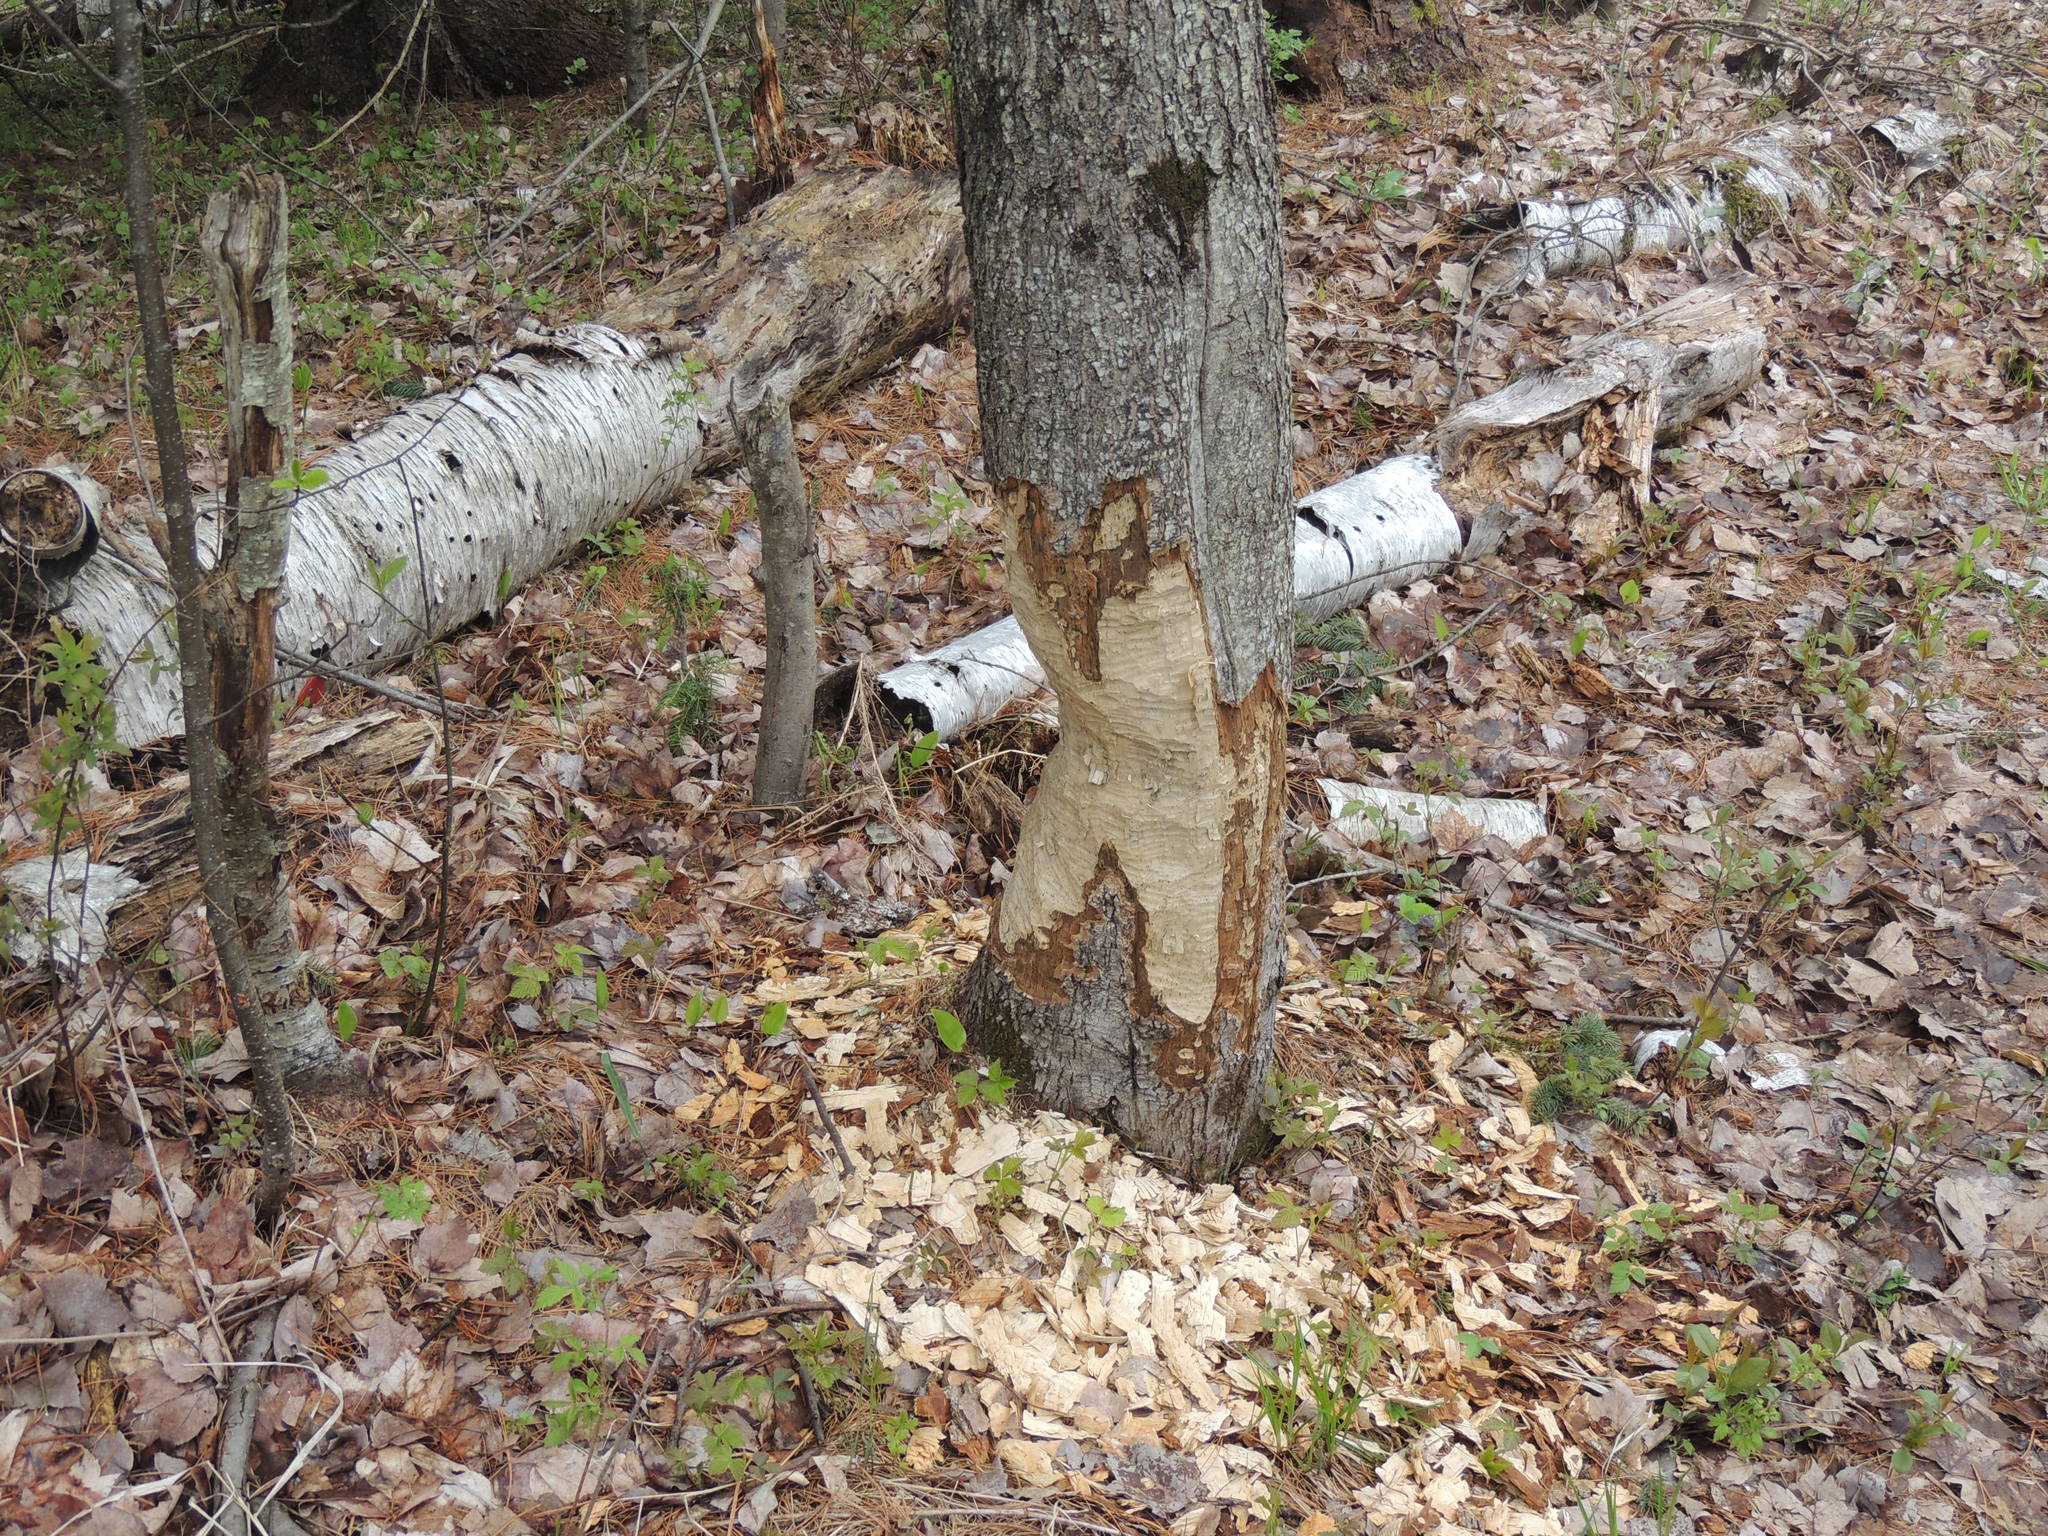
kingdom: Animalia
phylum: Chordata
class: Mammalia
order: Rodentia
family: Castoridae
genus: Castor
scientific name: Castor canadensis
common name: American beaver
